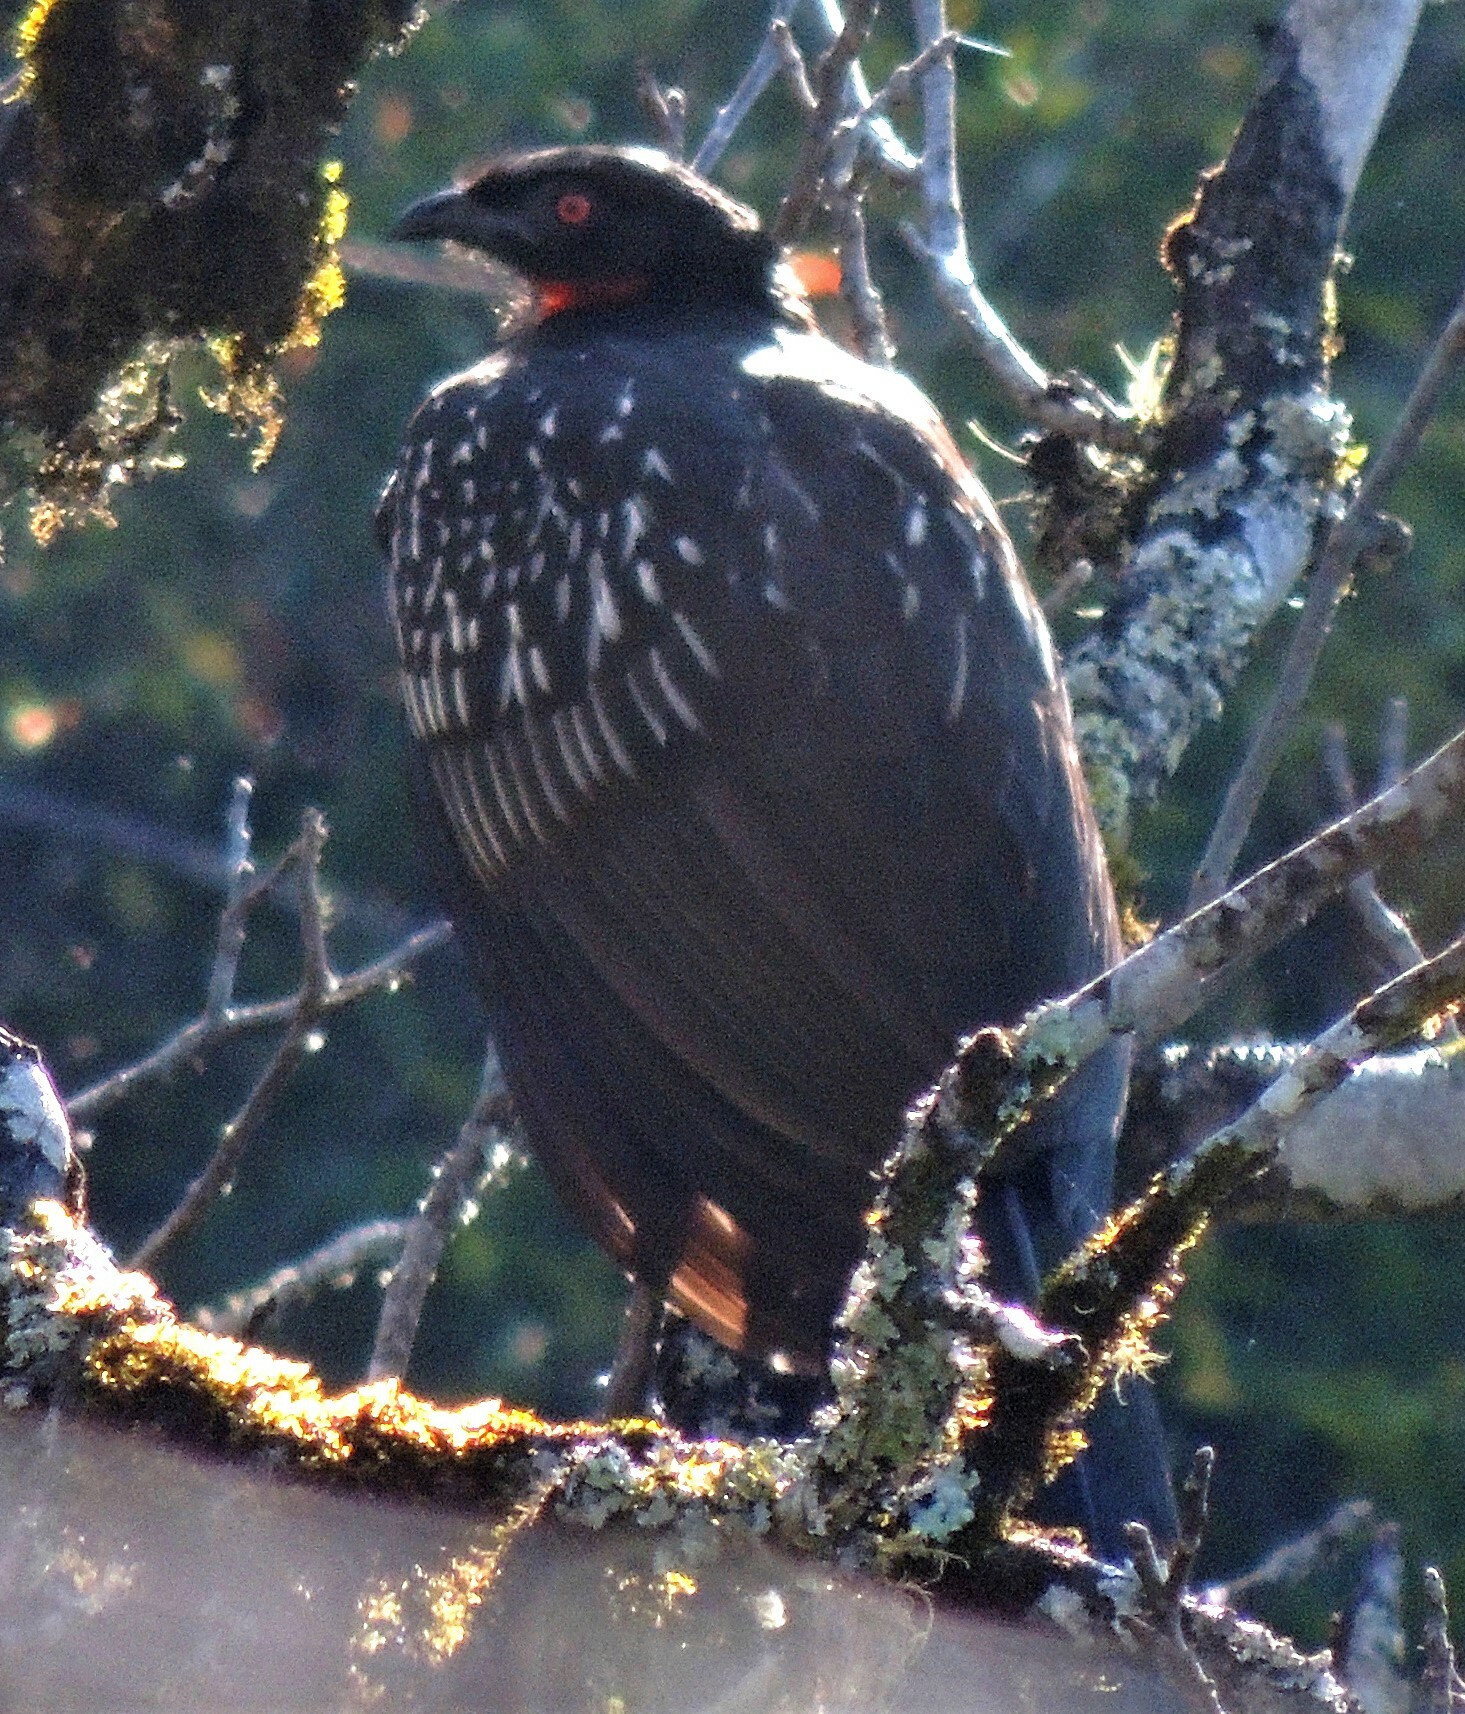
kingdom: Animalia
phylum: Chordata
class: Aves
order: Galliformes
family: Cracidae
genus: Penelope
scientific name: Penelope bridgesi
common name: Yungas guan
